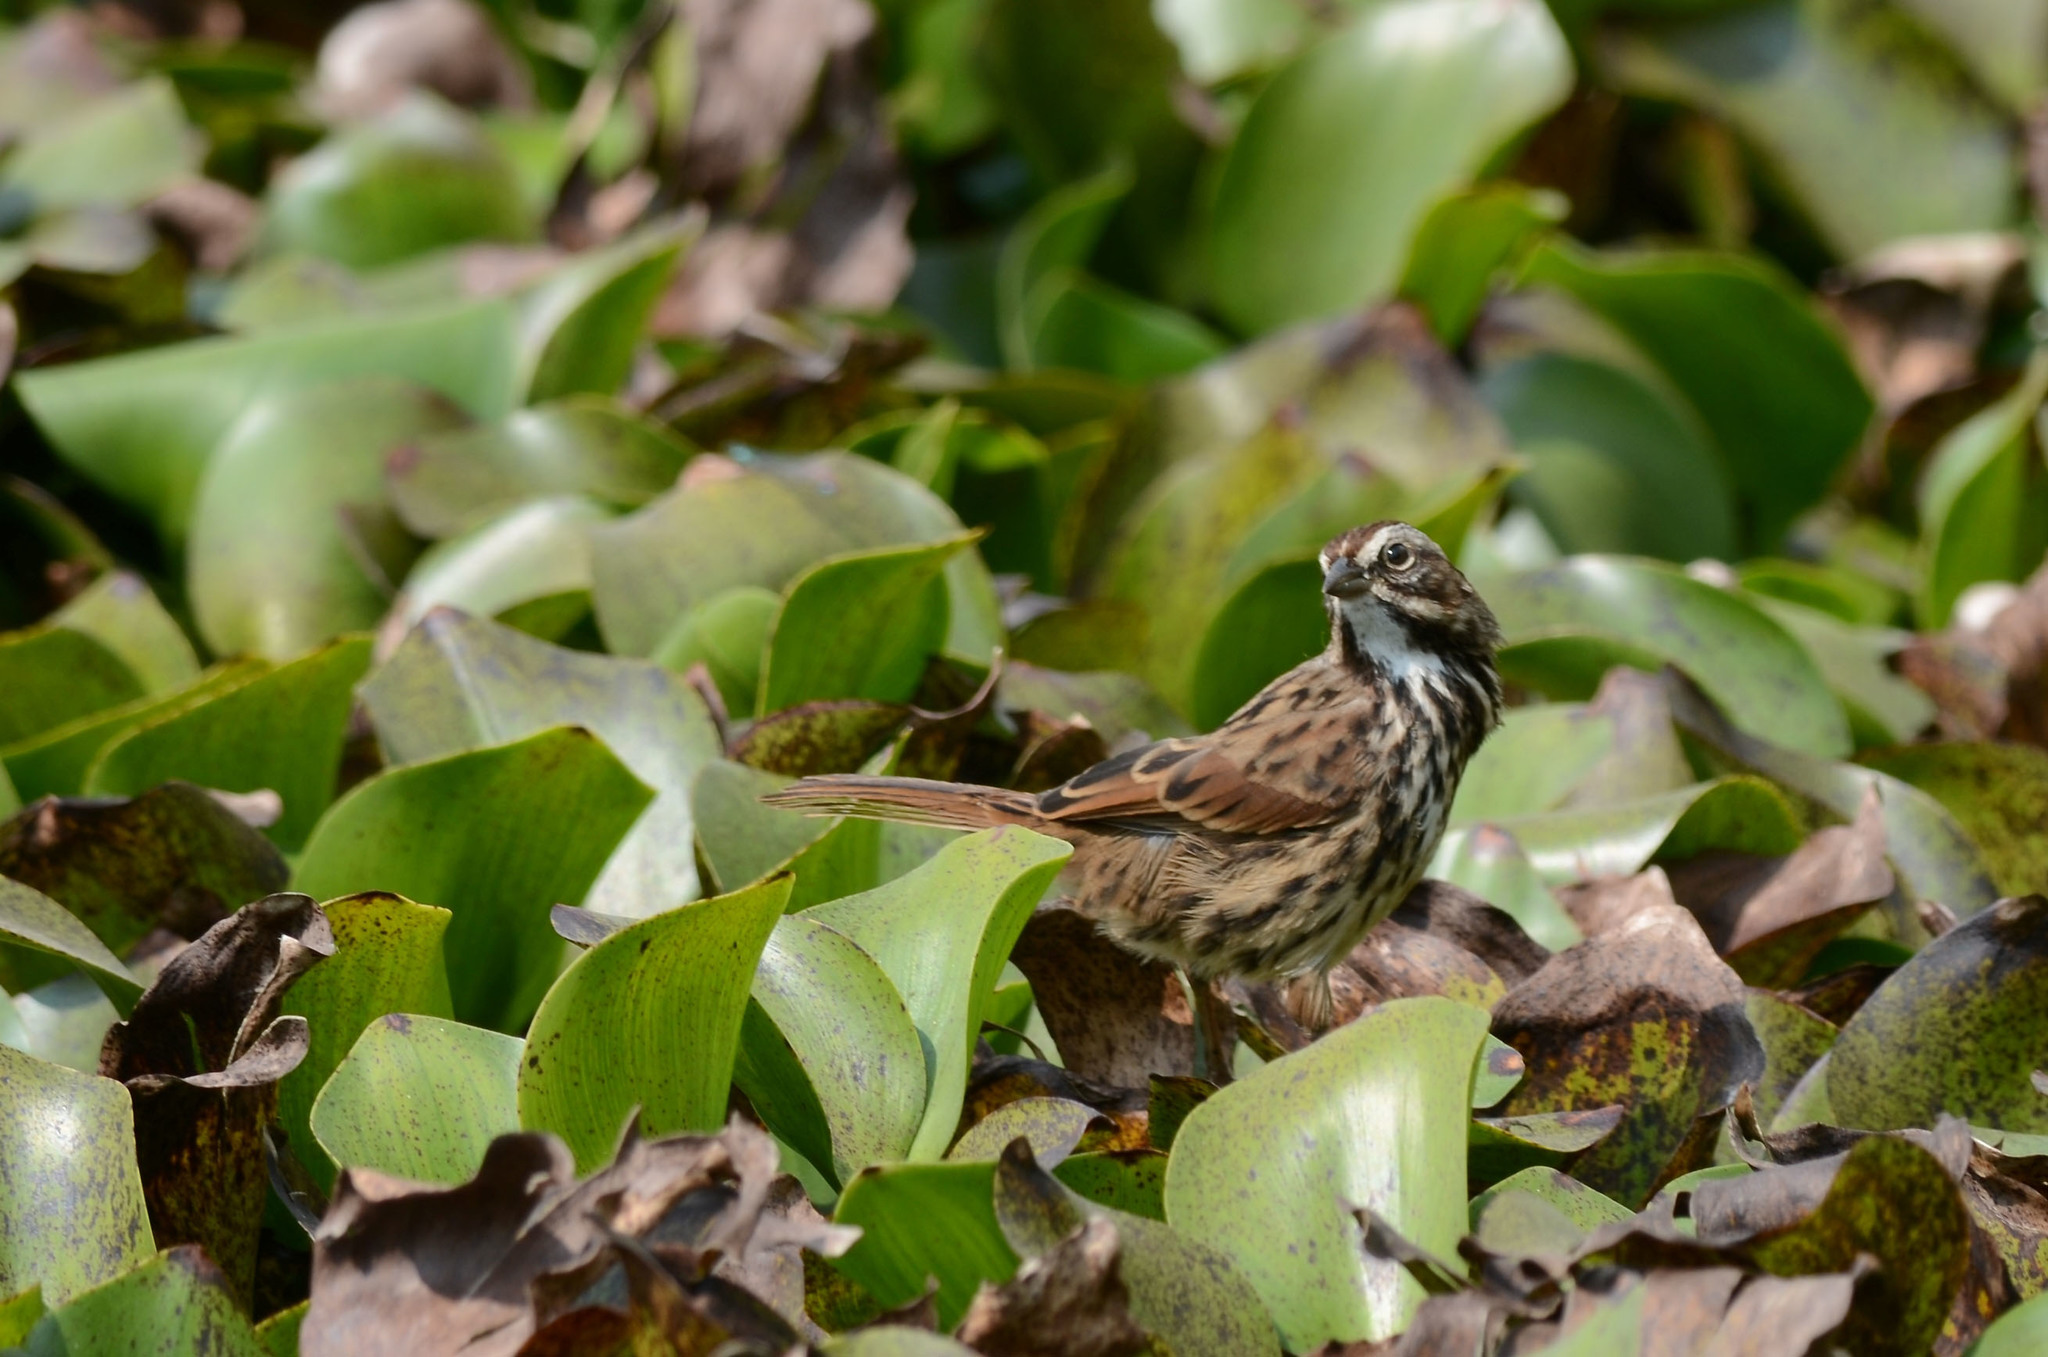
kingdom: Animalia
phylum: Chordata
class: Aves
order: Passeriformes
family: Passerellidae
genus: Melospiza
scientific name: Melospiza melodia
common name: Song sparrow
